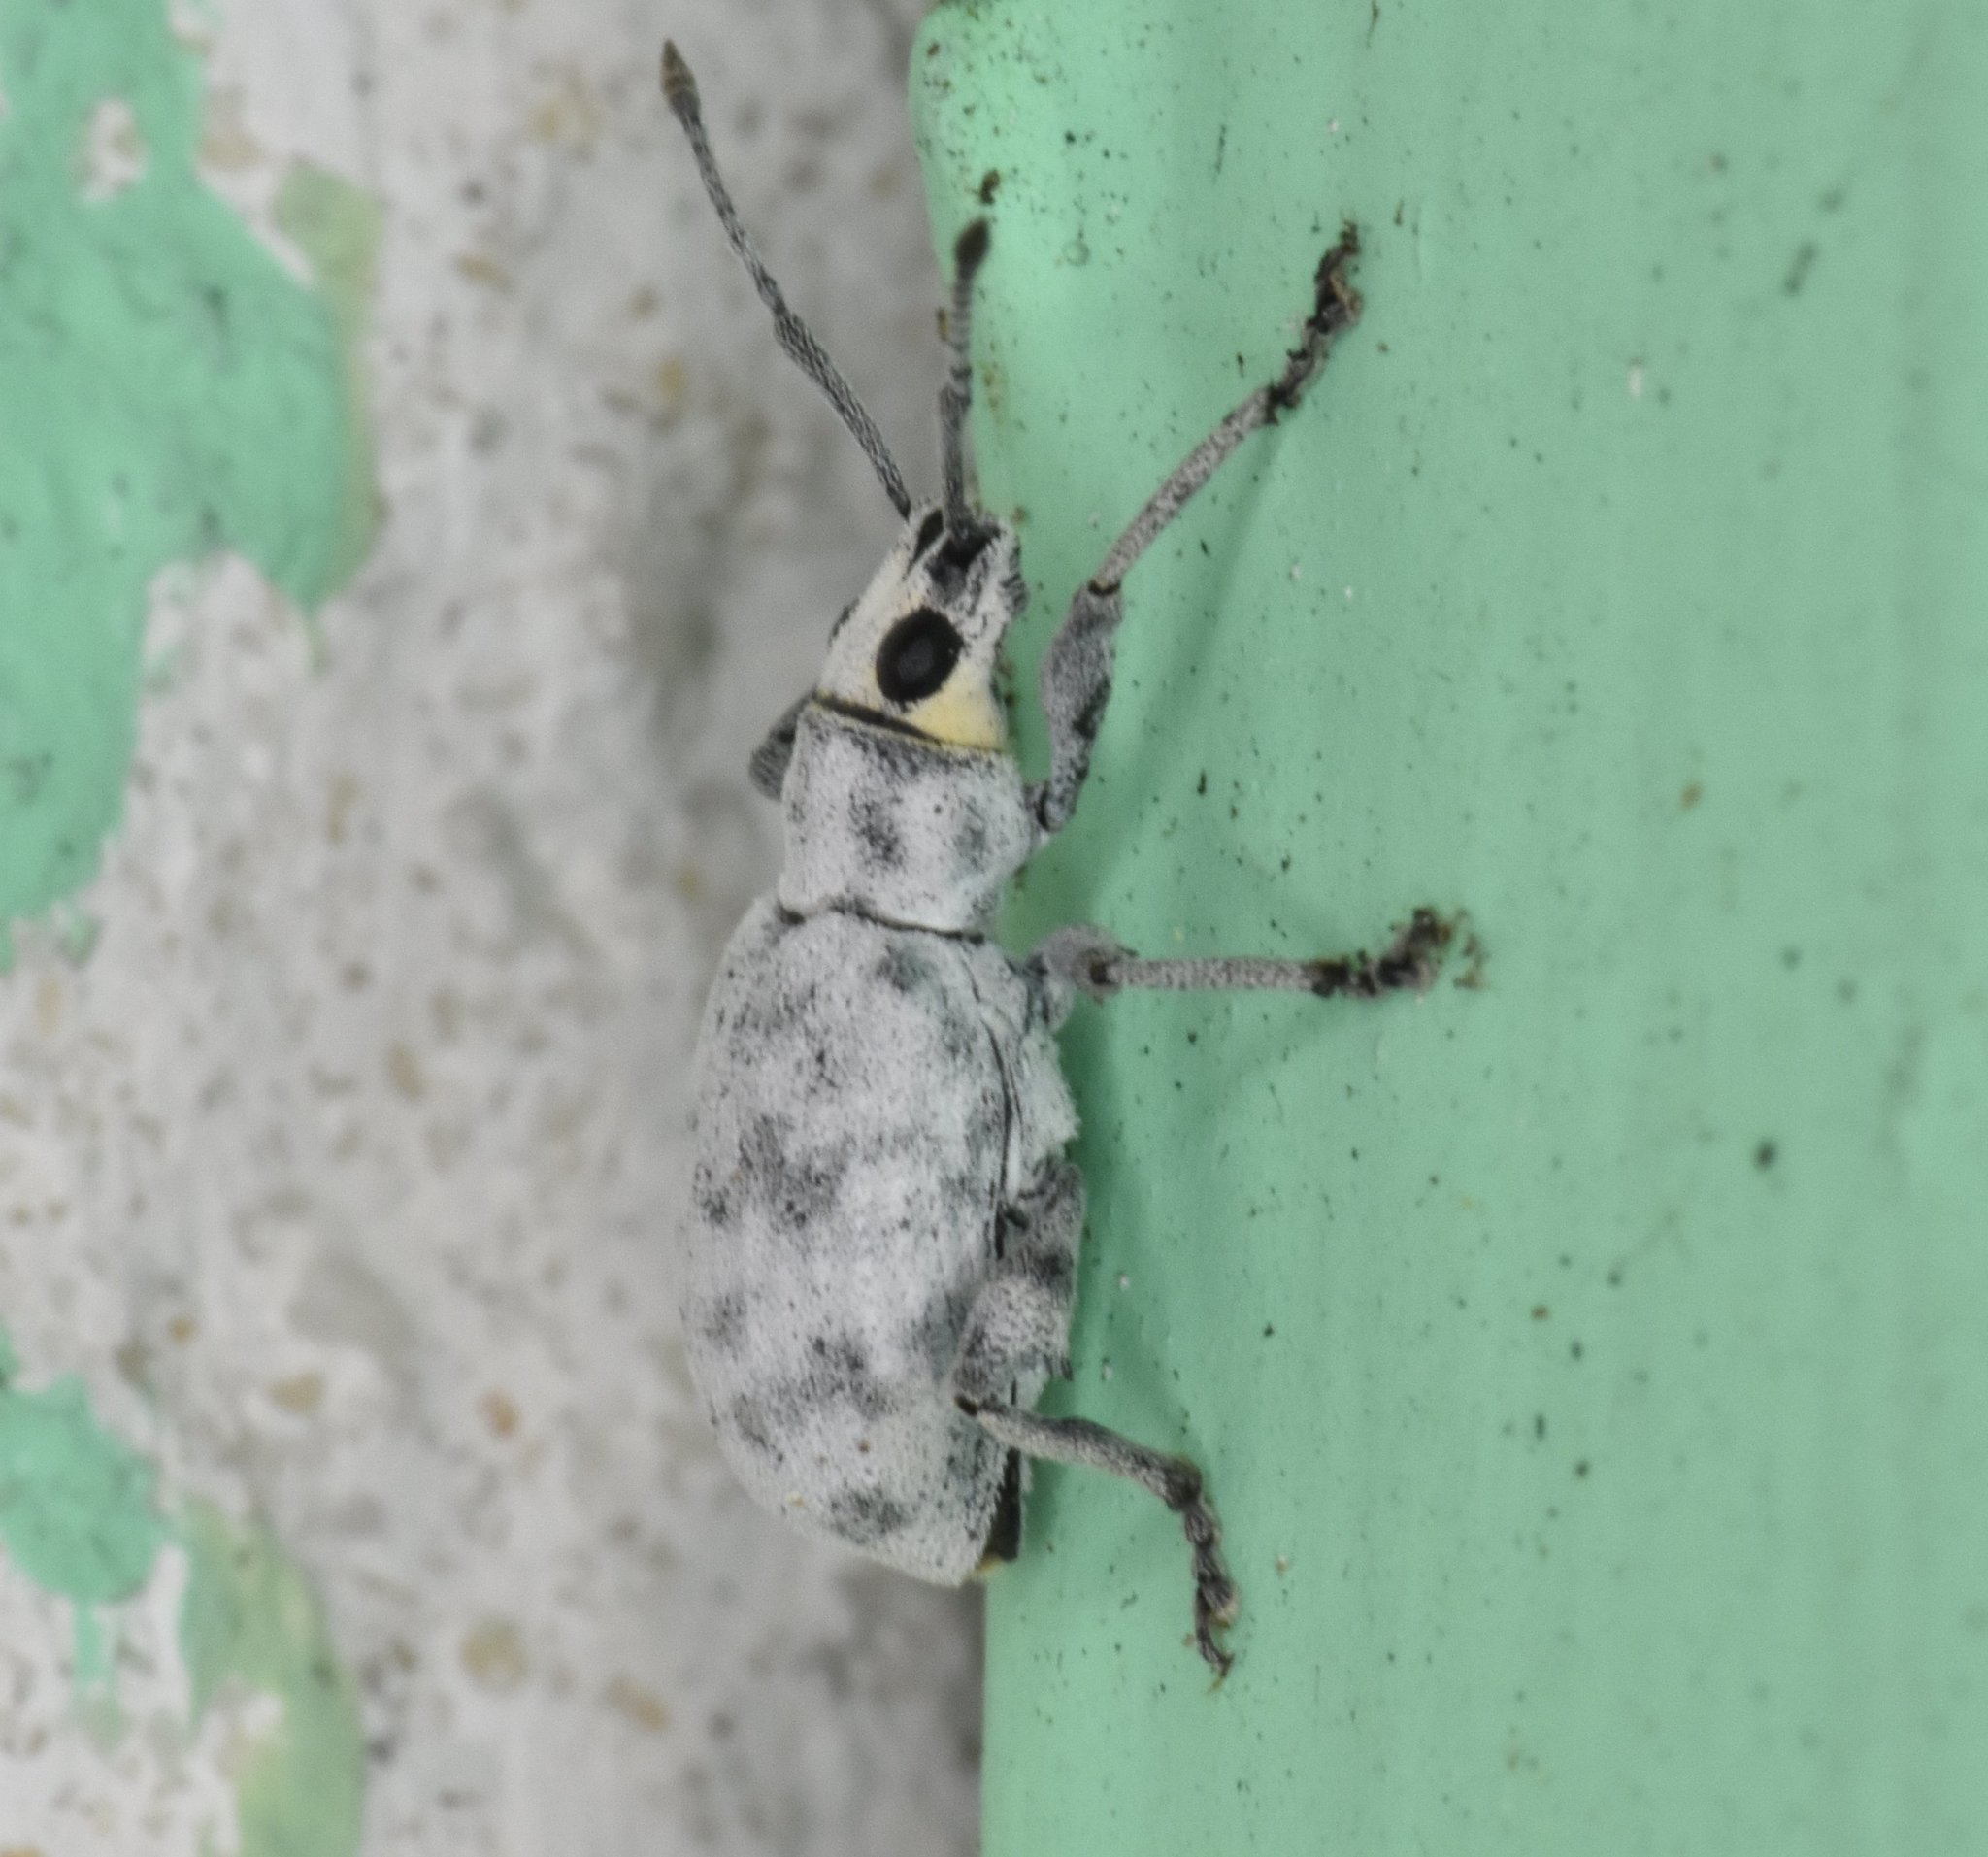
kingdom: Animalia
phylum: Arthropoda
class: Insecta
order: Coleoptera
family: Curculionidae
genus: Myllocerus
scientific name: Myllocerus undecimpustulatus
